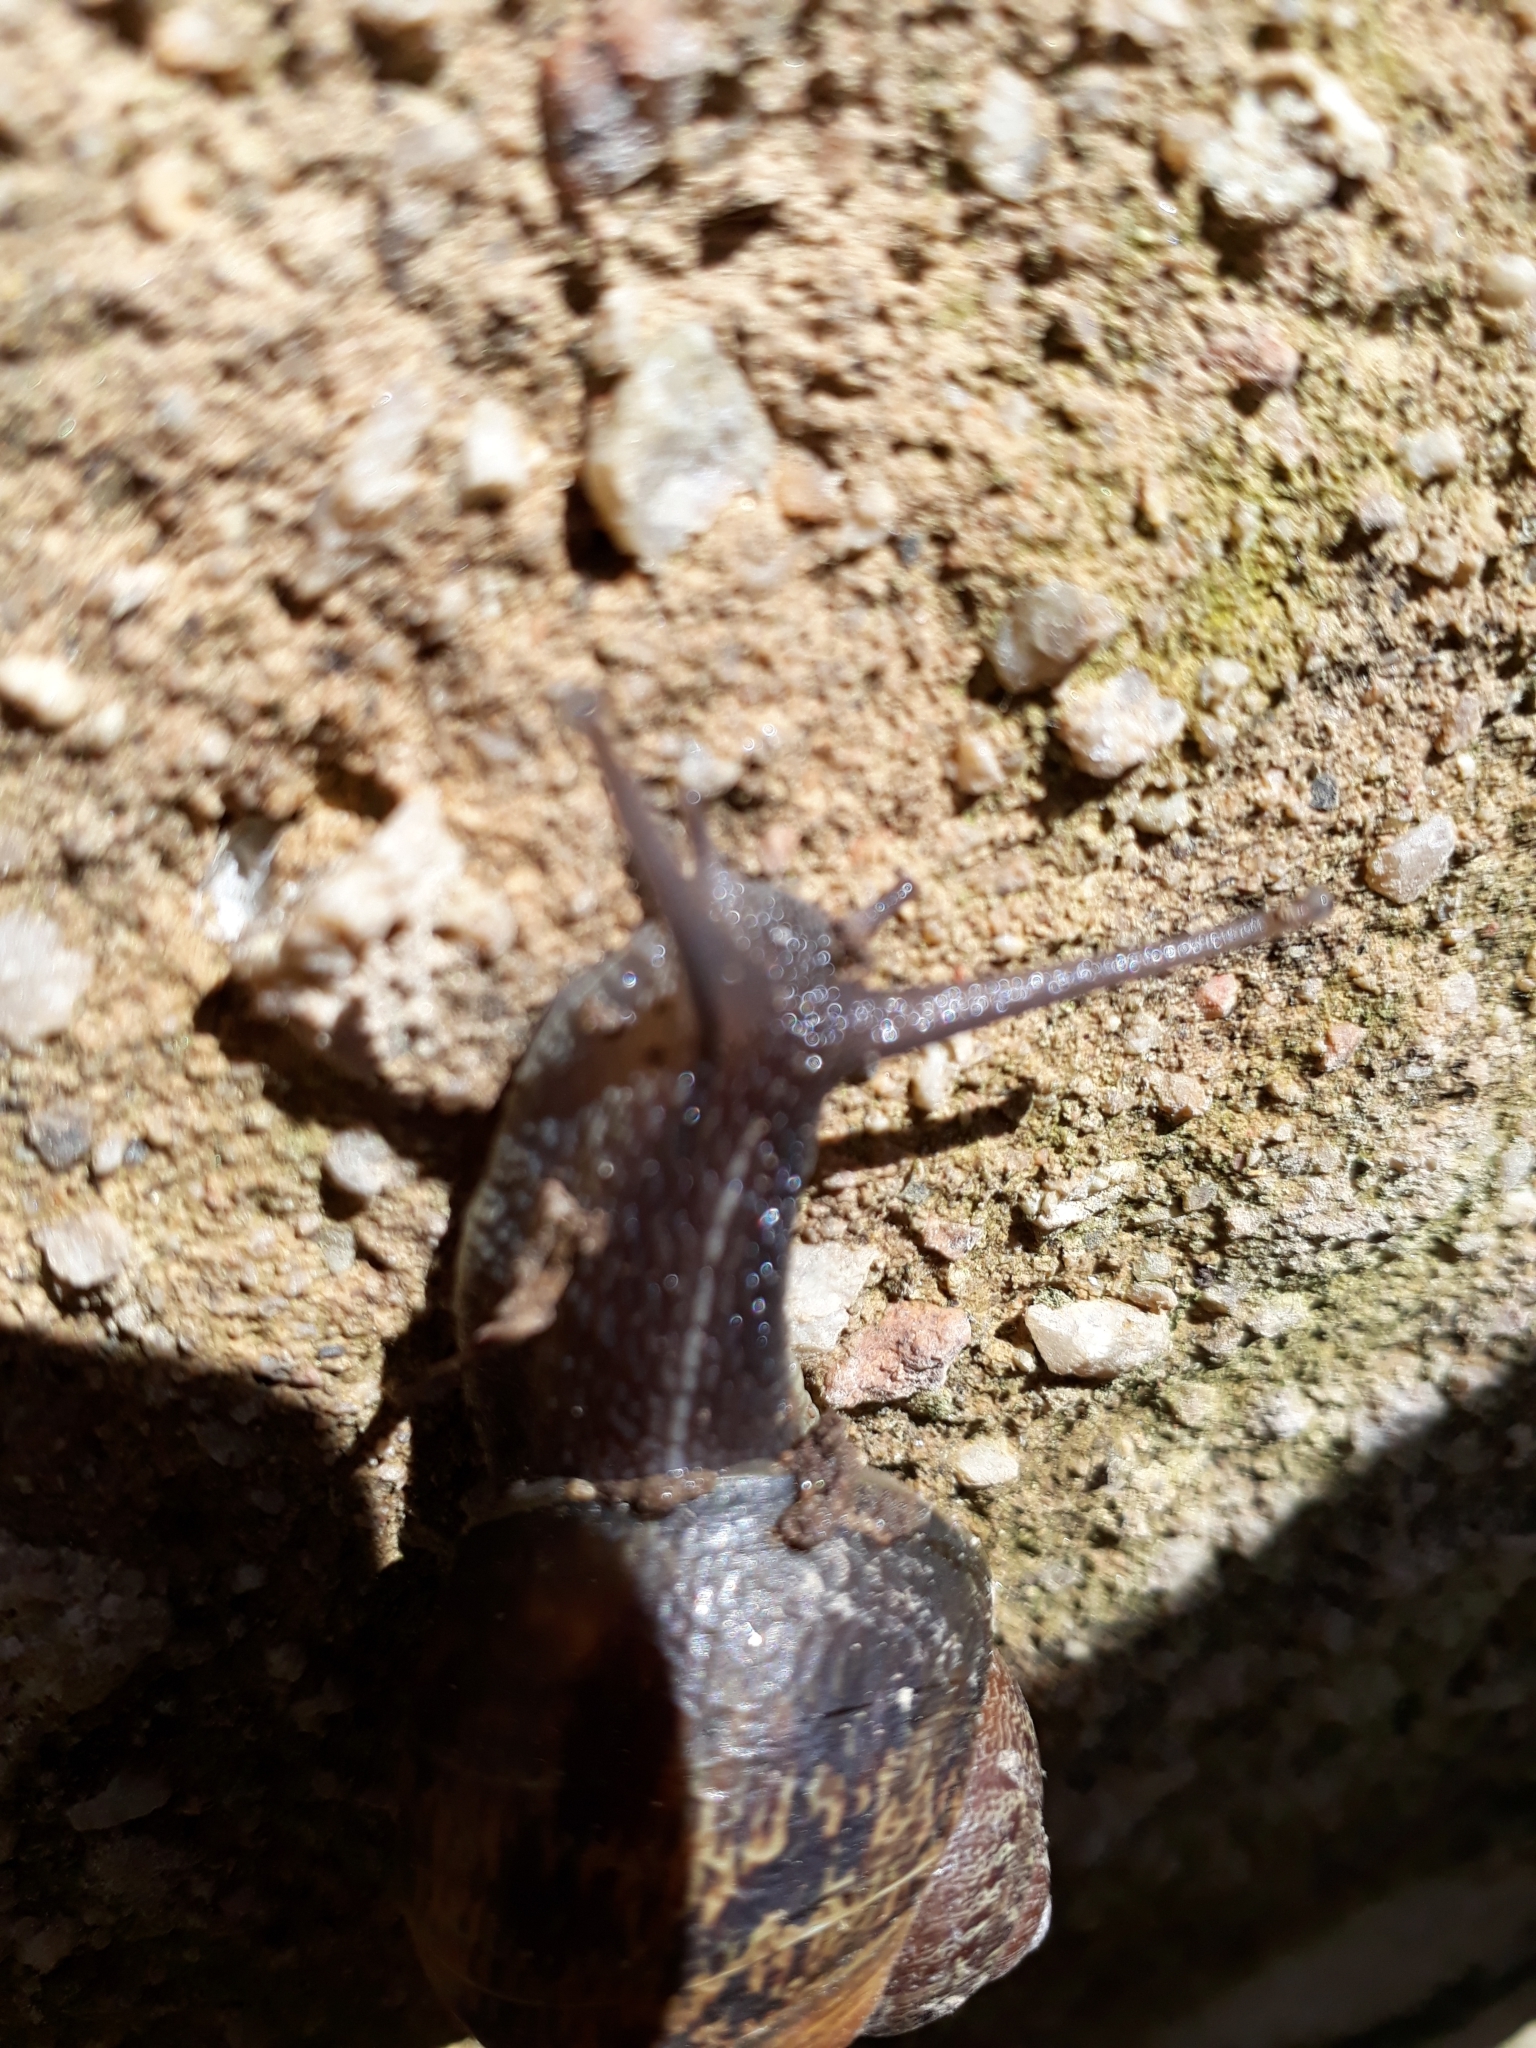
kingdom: Animalia
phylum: Mollusca
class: Gastropoda
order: Stylommatophora
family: Helicidae
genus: Cornu
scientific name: Cornu aspersum
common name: Brown garden snail
